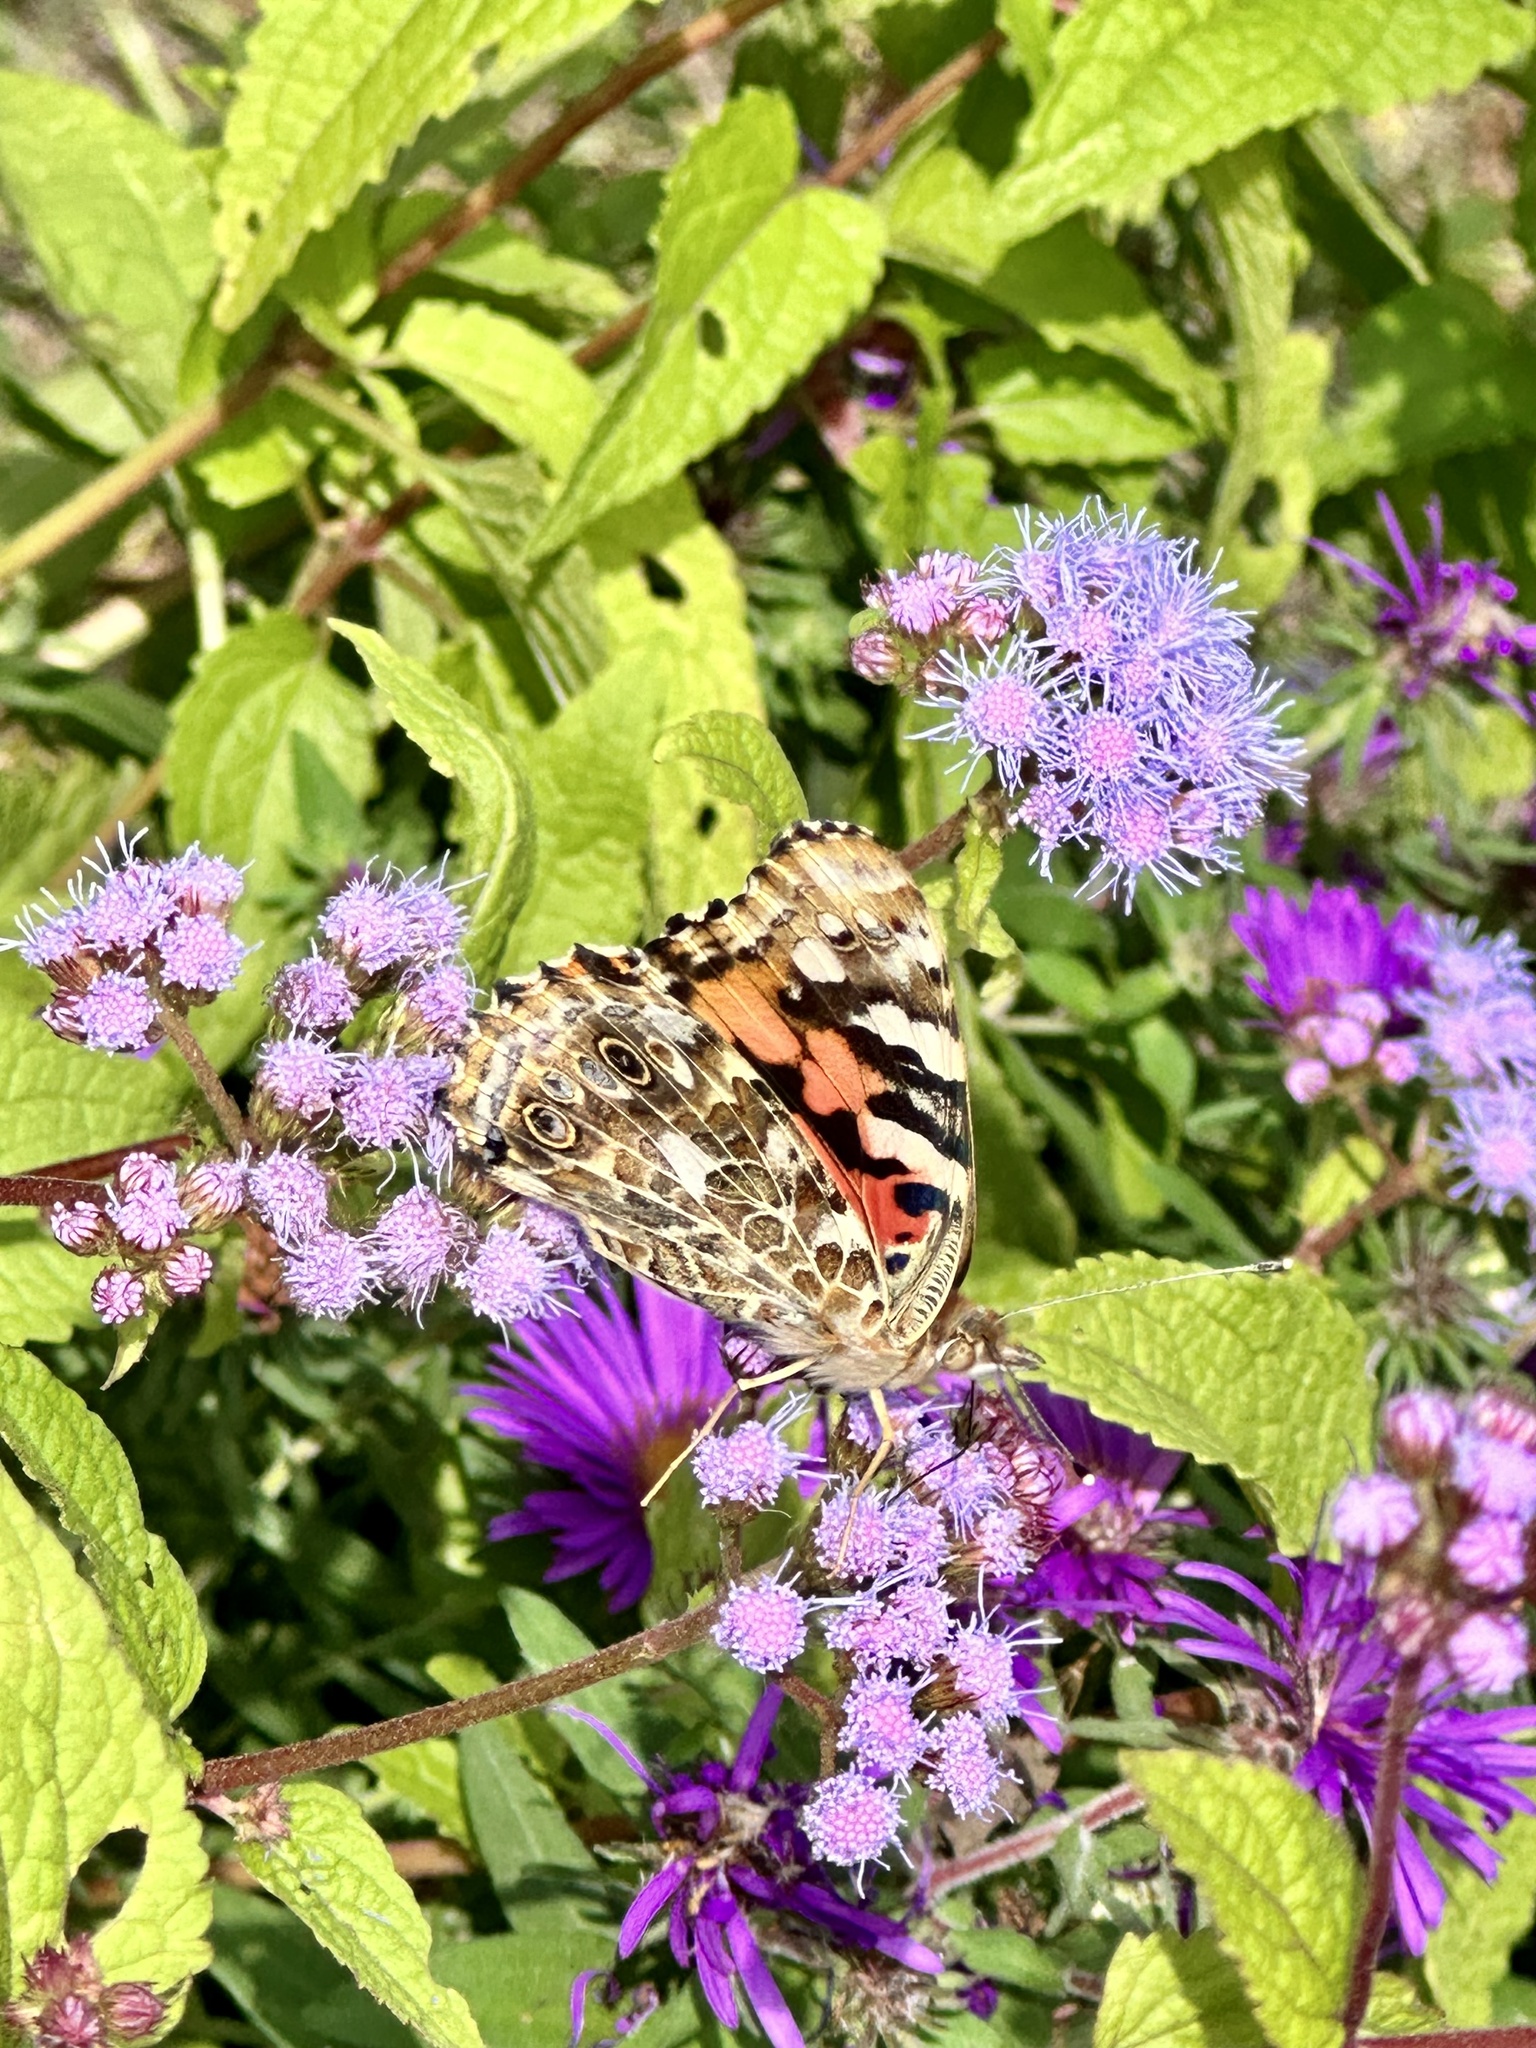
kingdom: Animalia
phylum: Arthropoda
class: Insecta
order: Lepidoptera
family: Nymphalidae
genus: Vanessa
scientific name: Vanessa cardui
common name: Painted lady
